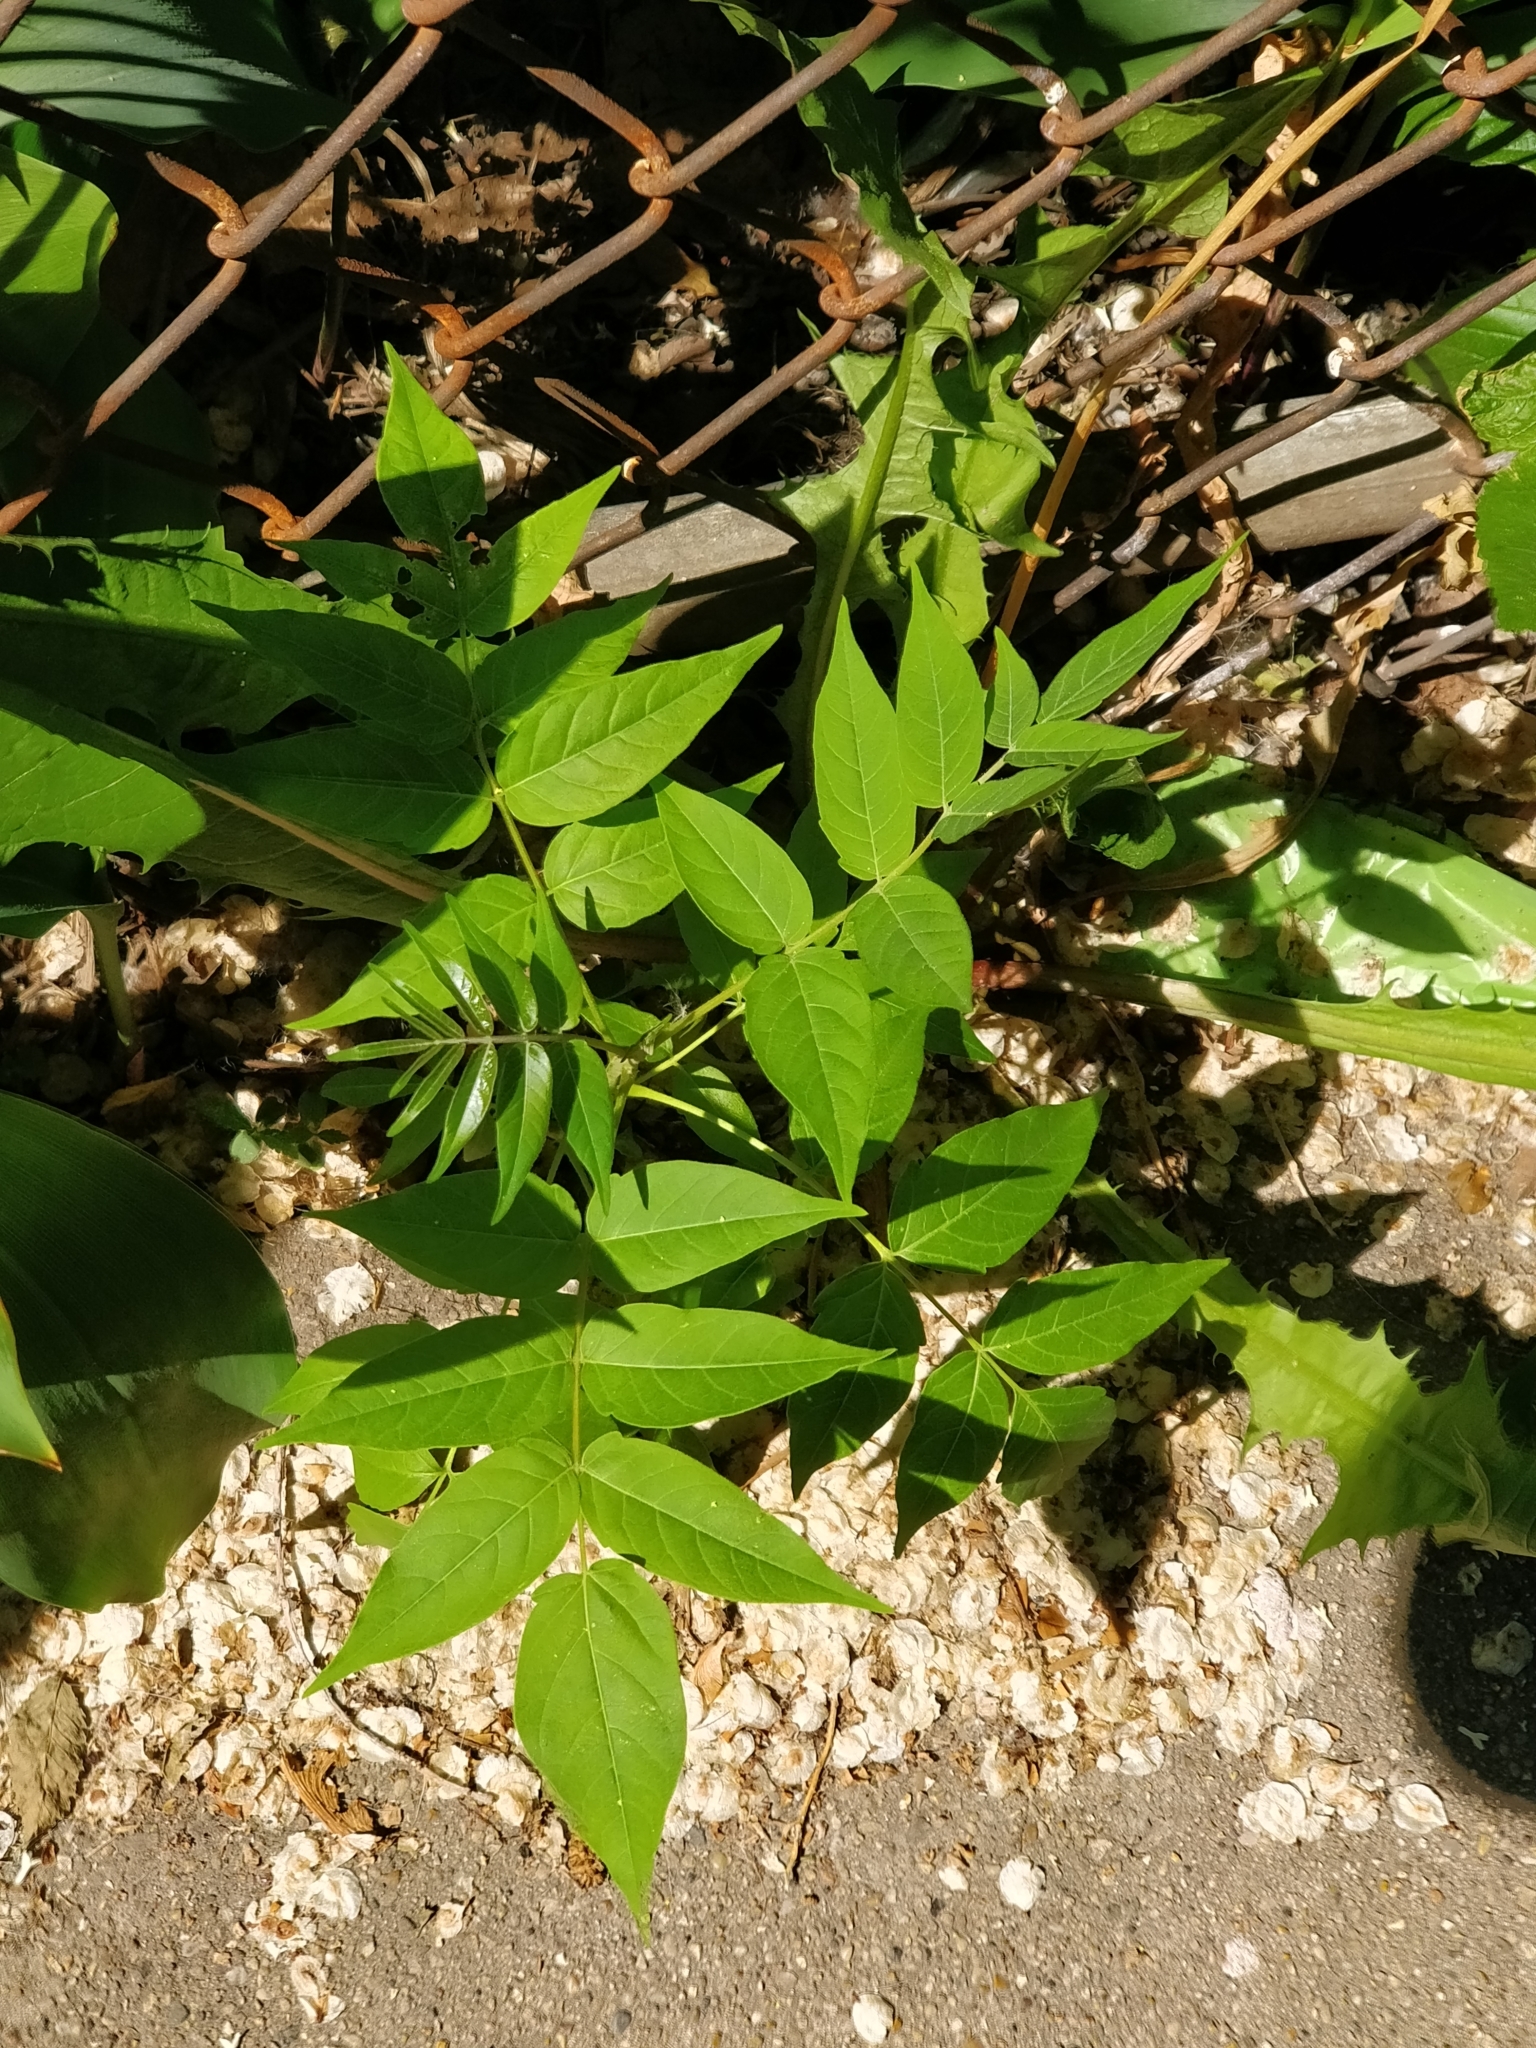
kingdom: Plantae
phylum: Tracheophyta
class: Magnoliopsida
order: Sapindales
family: Simaroubaceae
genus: Ailanthus
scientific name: Ailanthus altissima
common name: Tree-of-heaven
